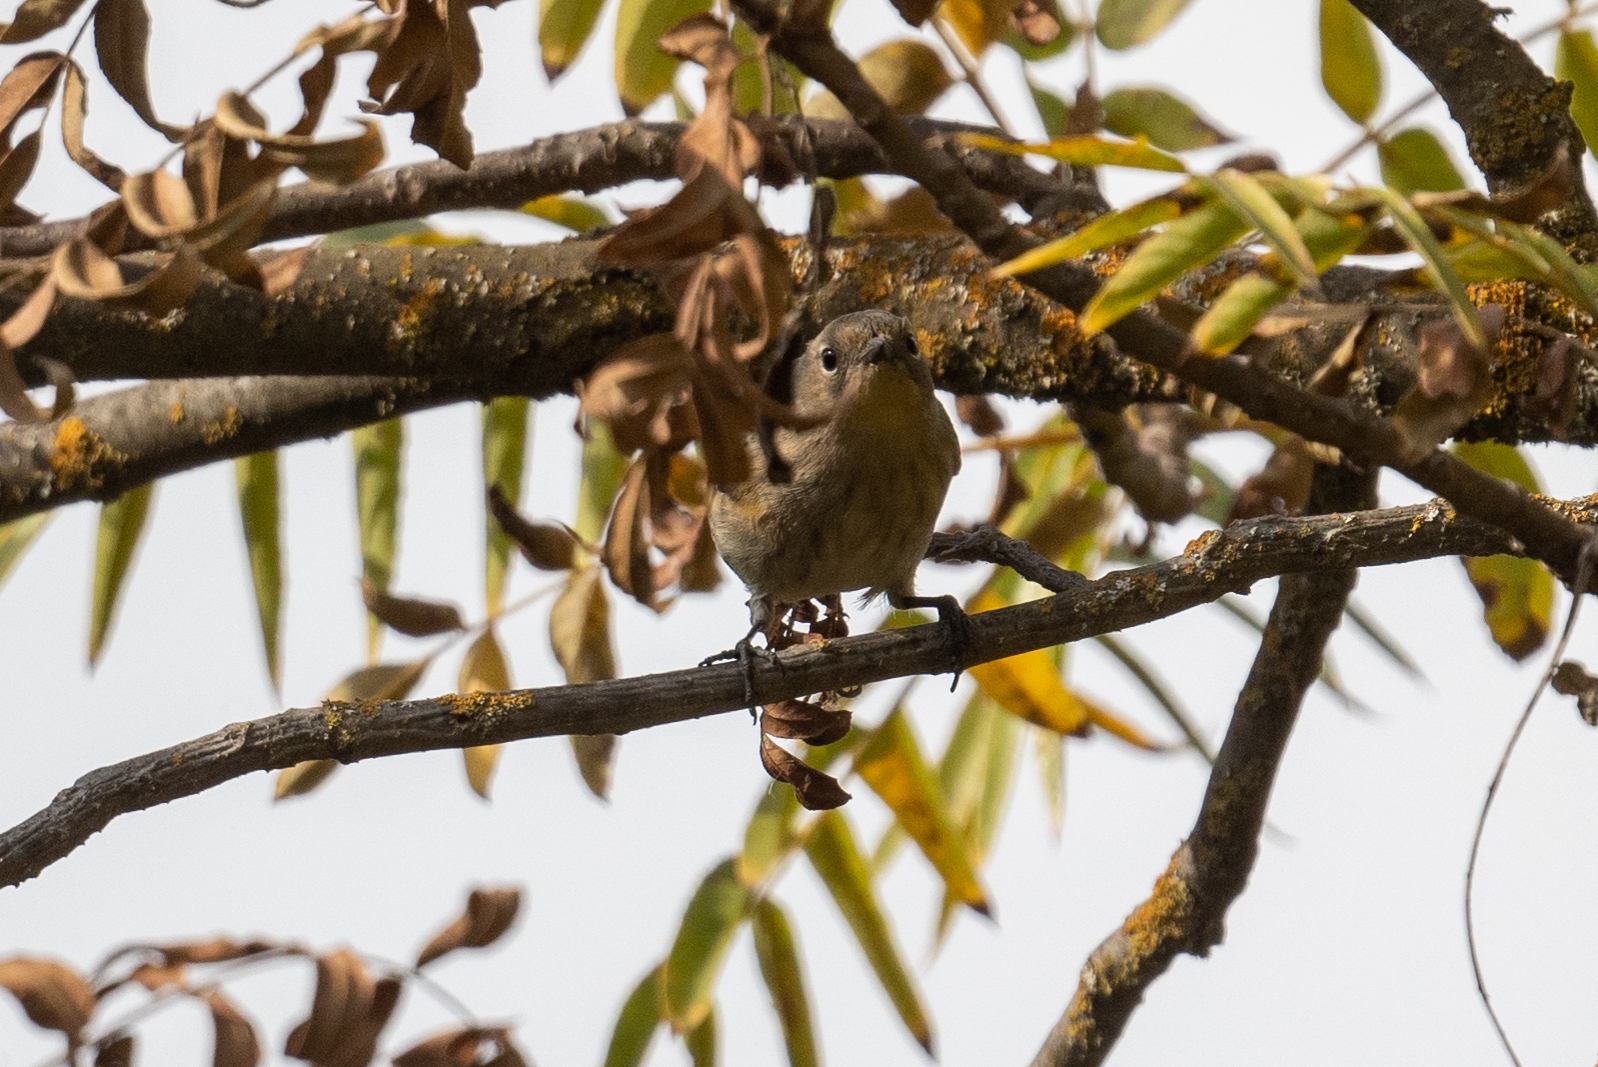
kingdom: Animalia
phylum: Chordata
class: Aves
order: Passeriformes
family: Parulidae
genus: Setophaga
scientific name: Setophaga coronata
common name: Myrtle warbler
